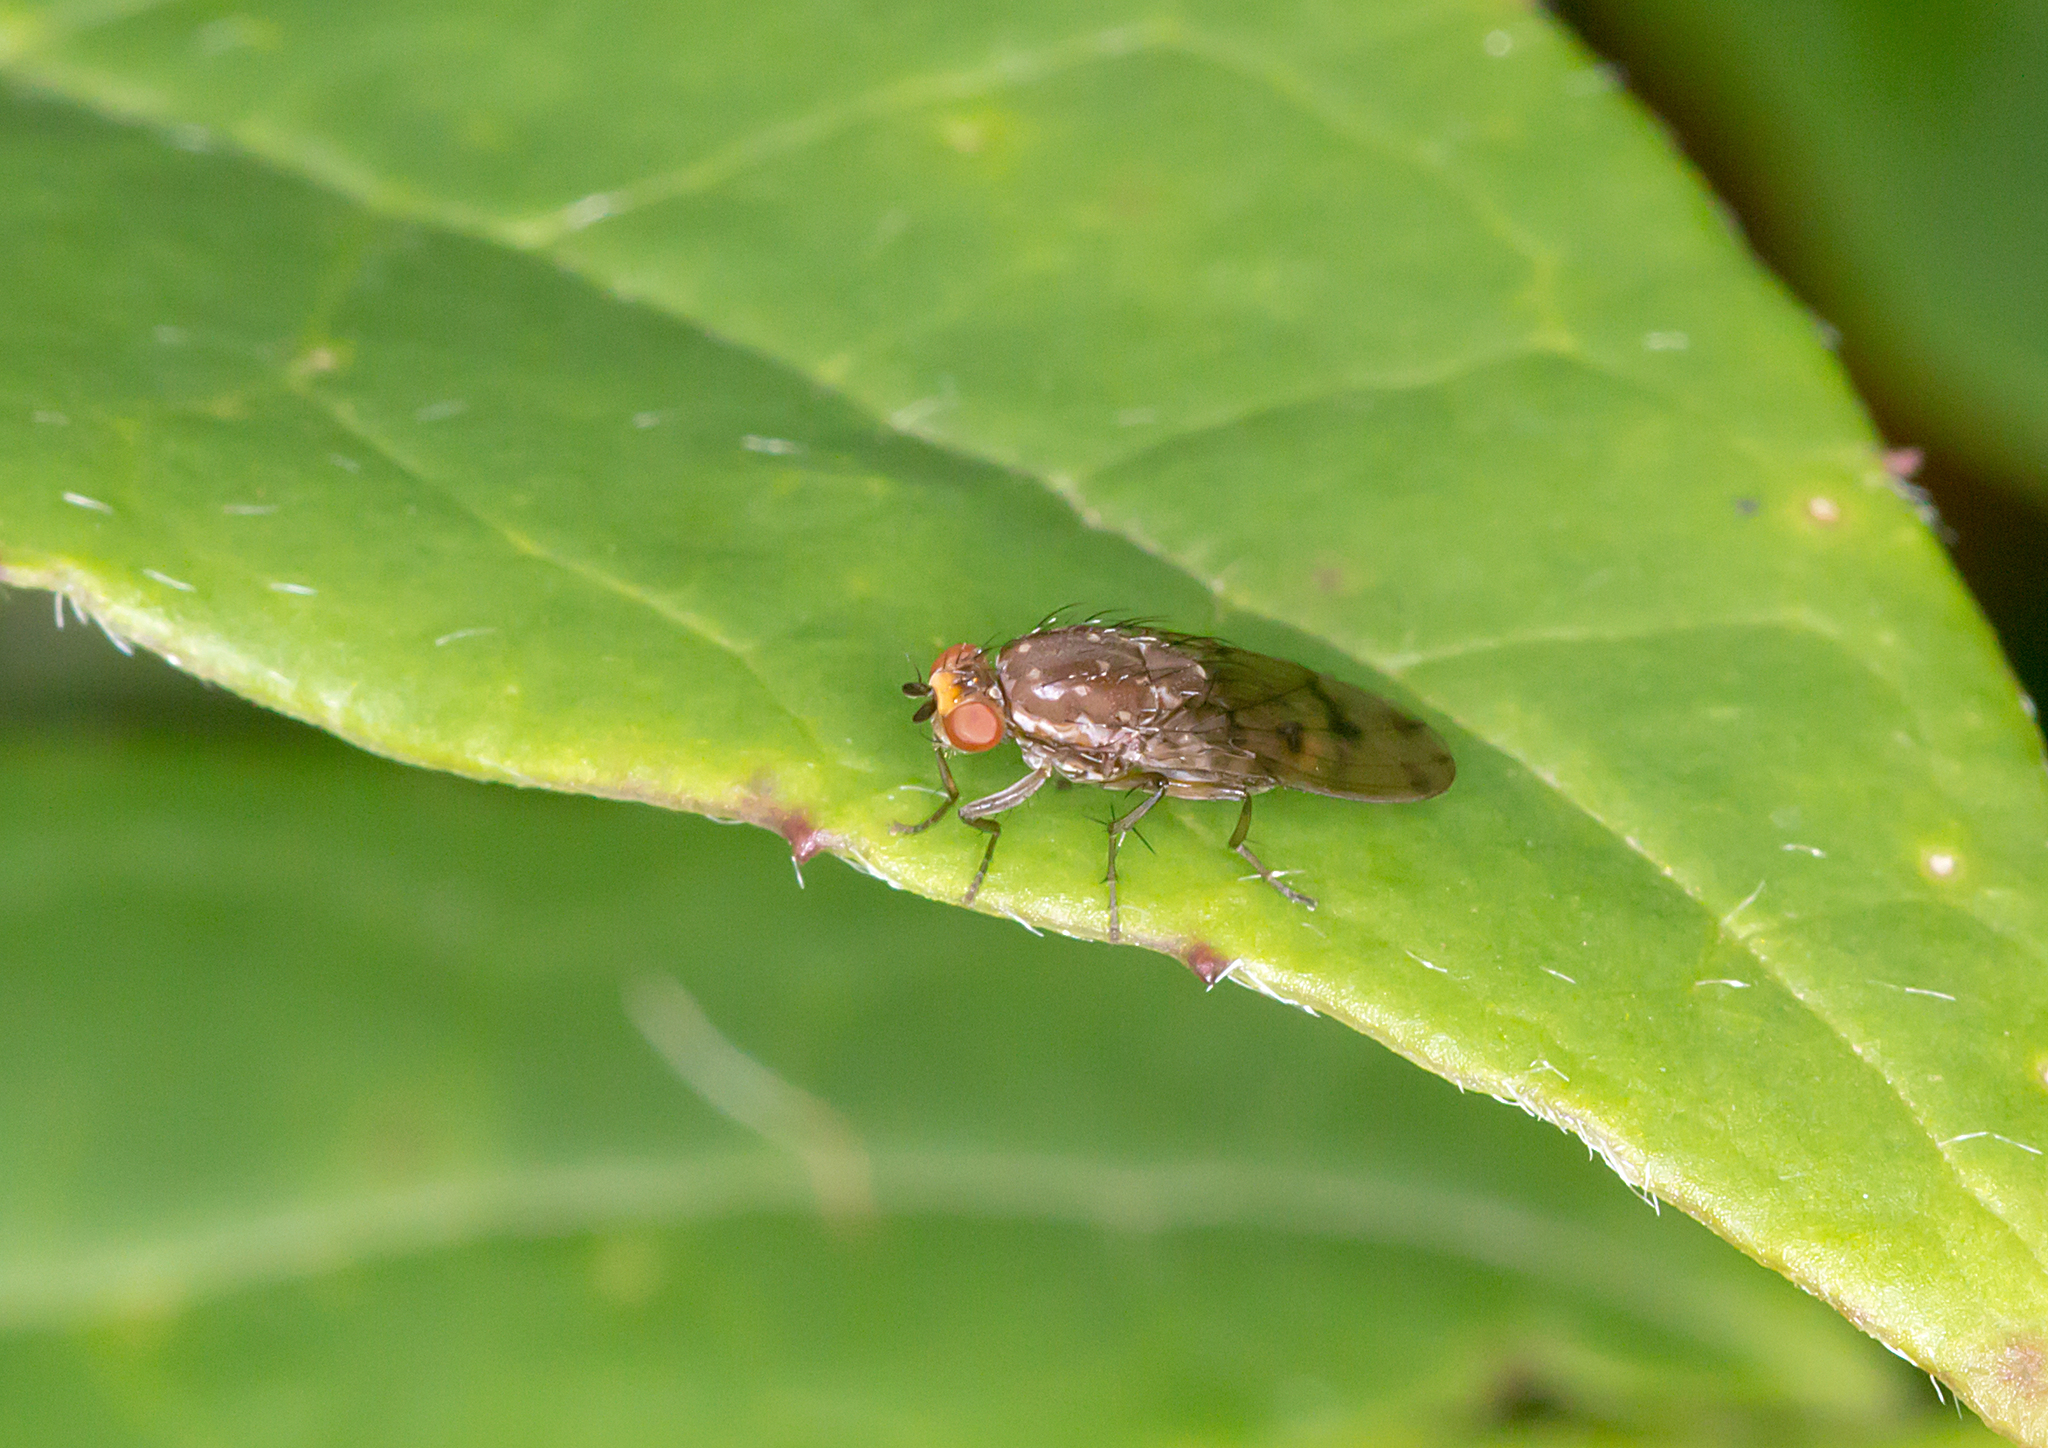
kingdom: Animalia
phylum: Arthropoda
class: Insecta
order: Diptera
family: Heleomyzidae
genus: Diplogeomyza
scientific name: Diplogeomyza hardyi
